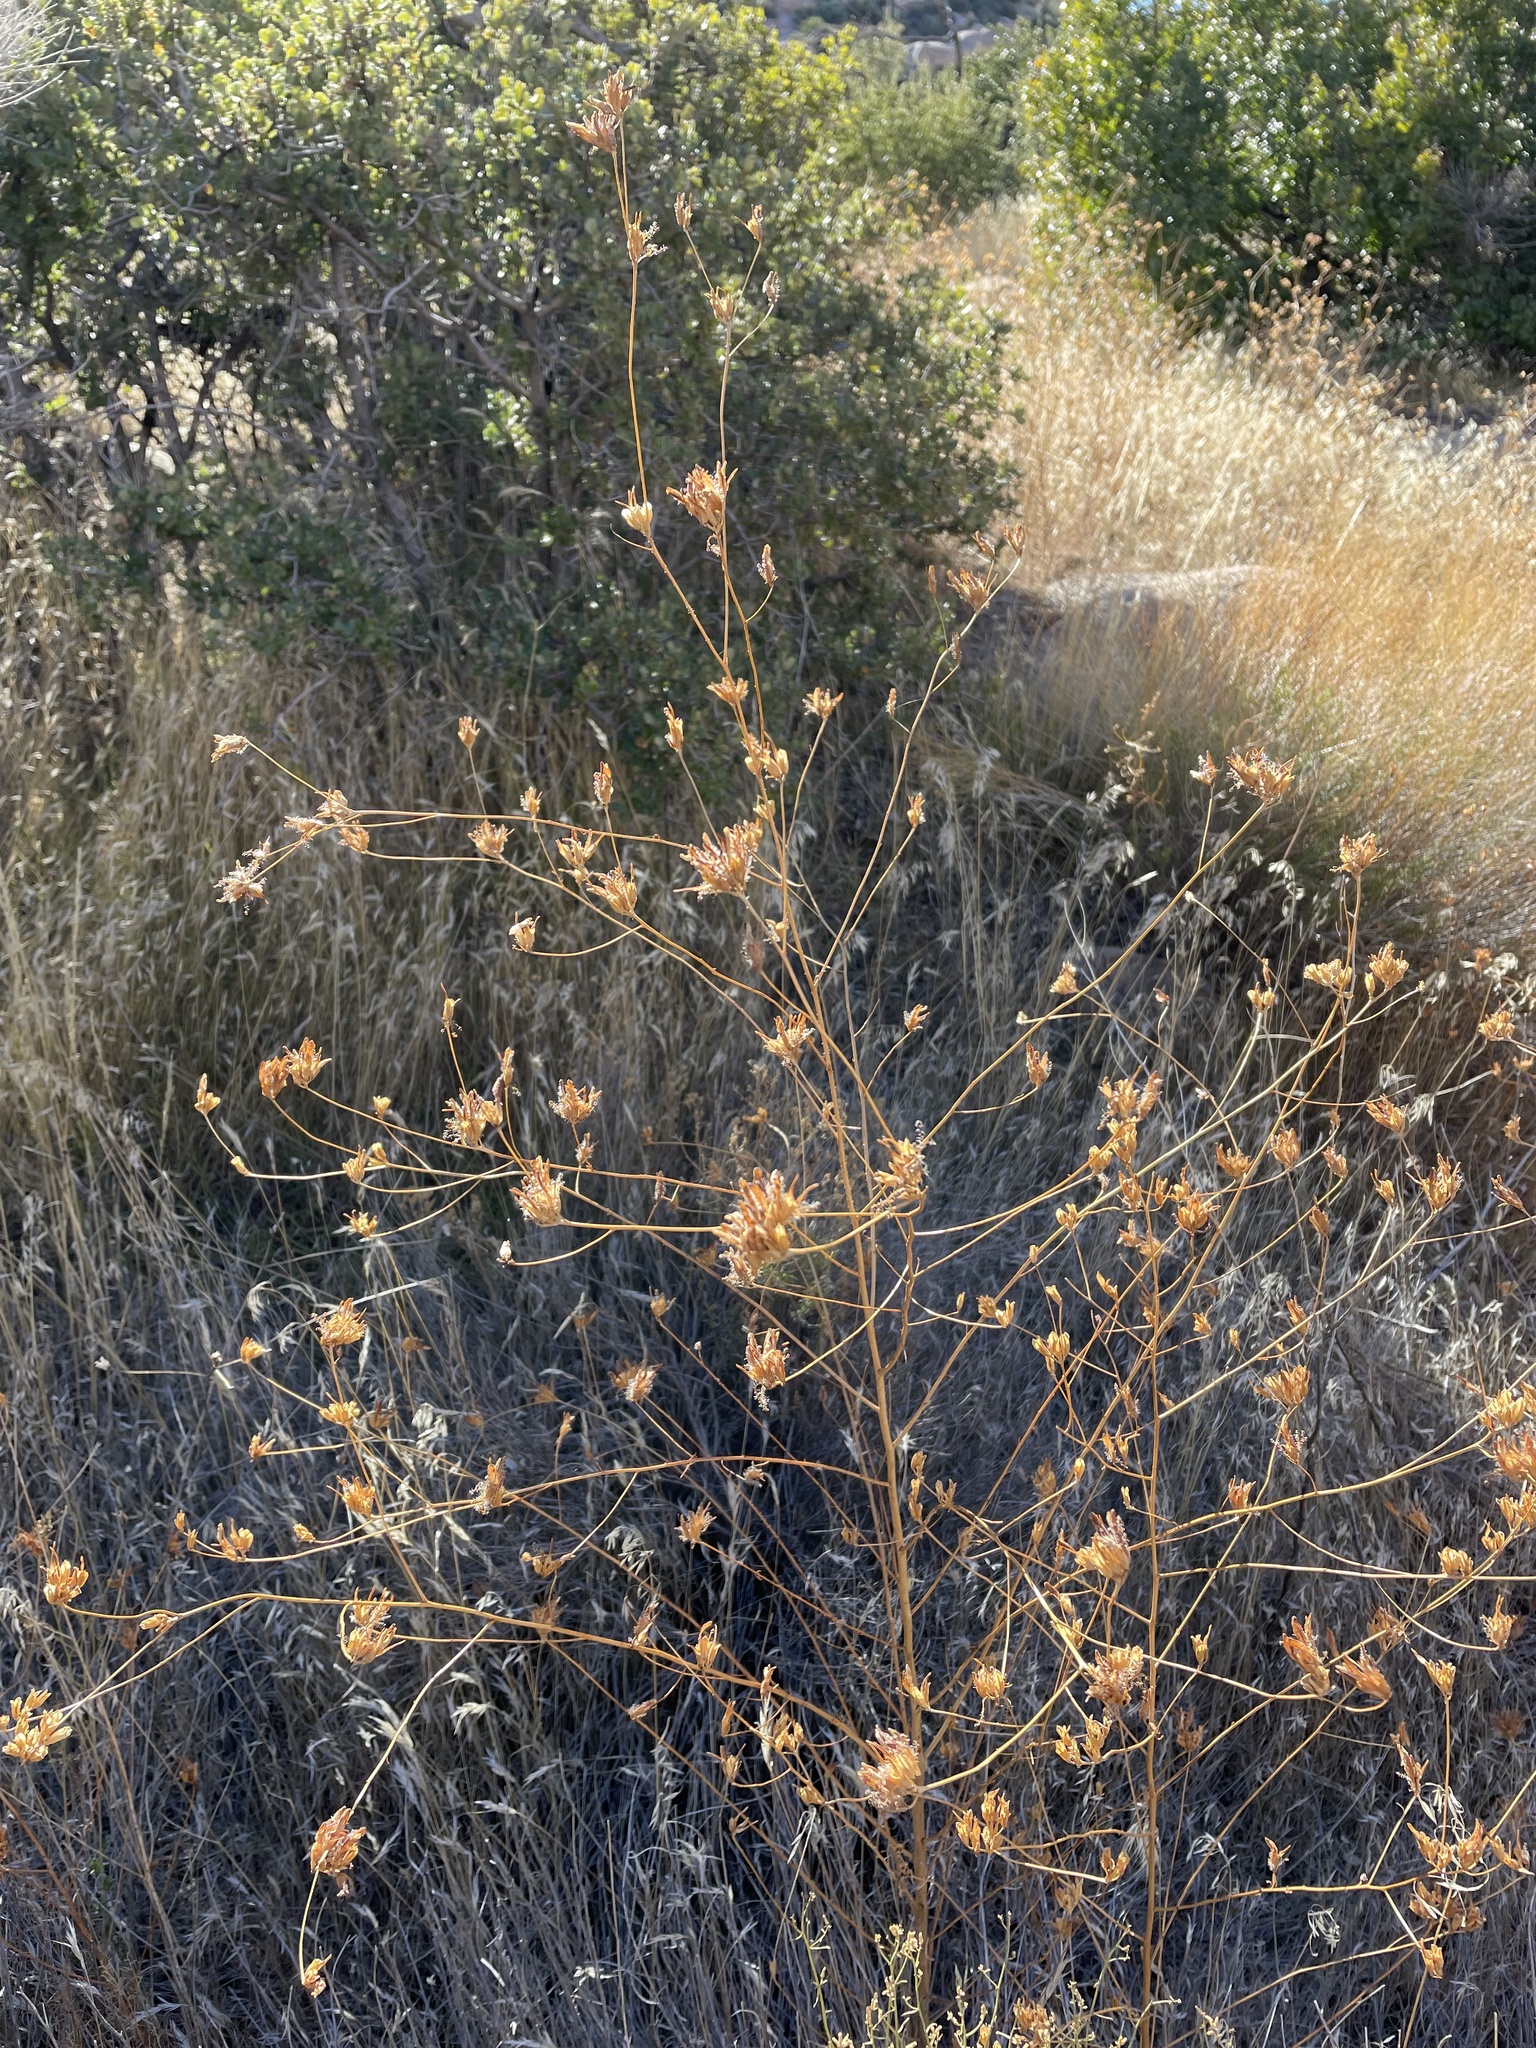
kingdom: Plantae
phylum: Tracheophyta
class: Magnoliopsida
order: Lamiales
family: Orobanchaceae
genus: Cordylanthus
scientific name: Cordylanthus rigidus
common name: Stiff-branch bird's-beak
